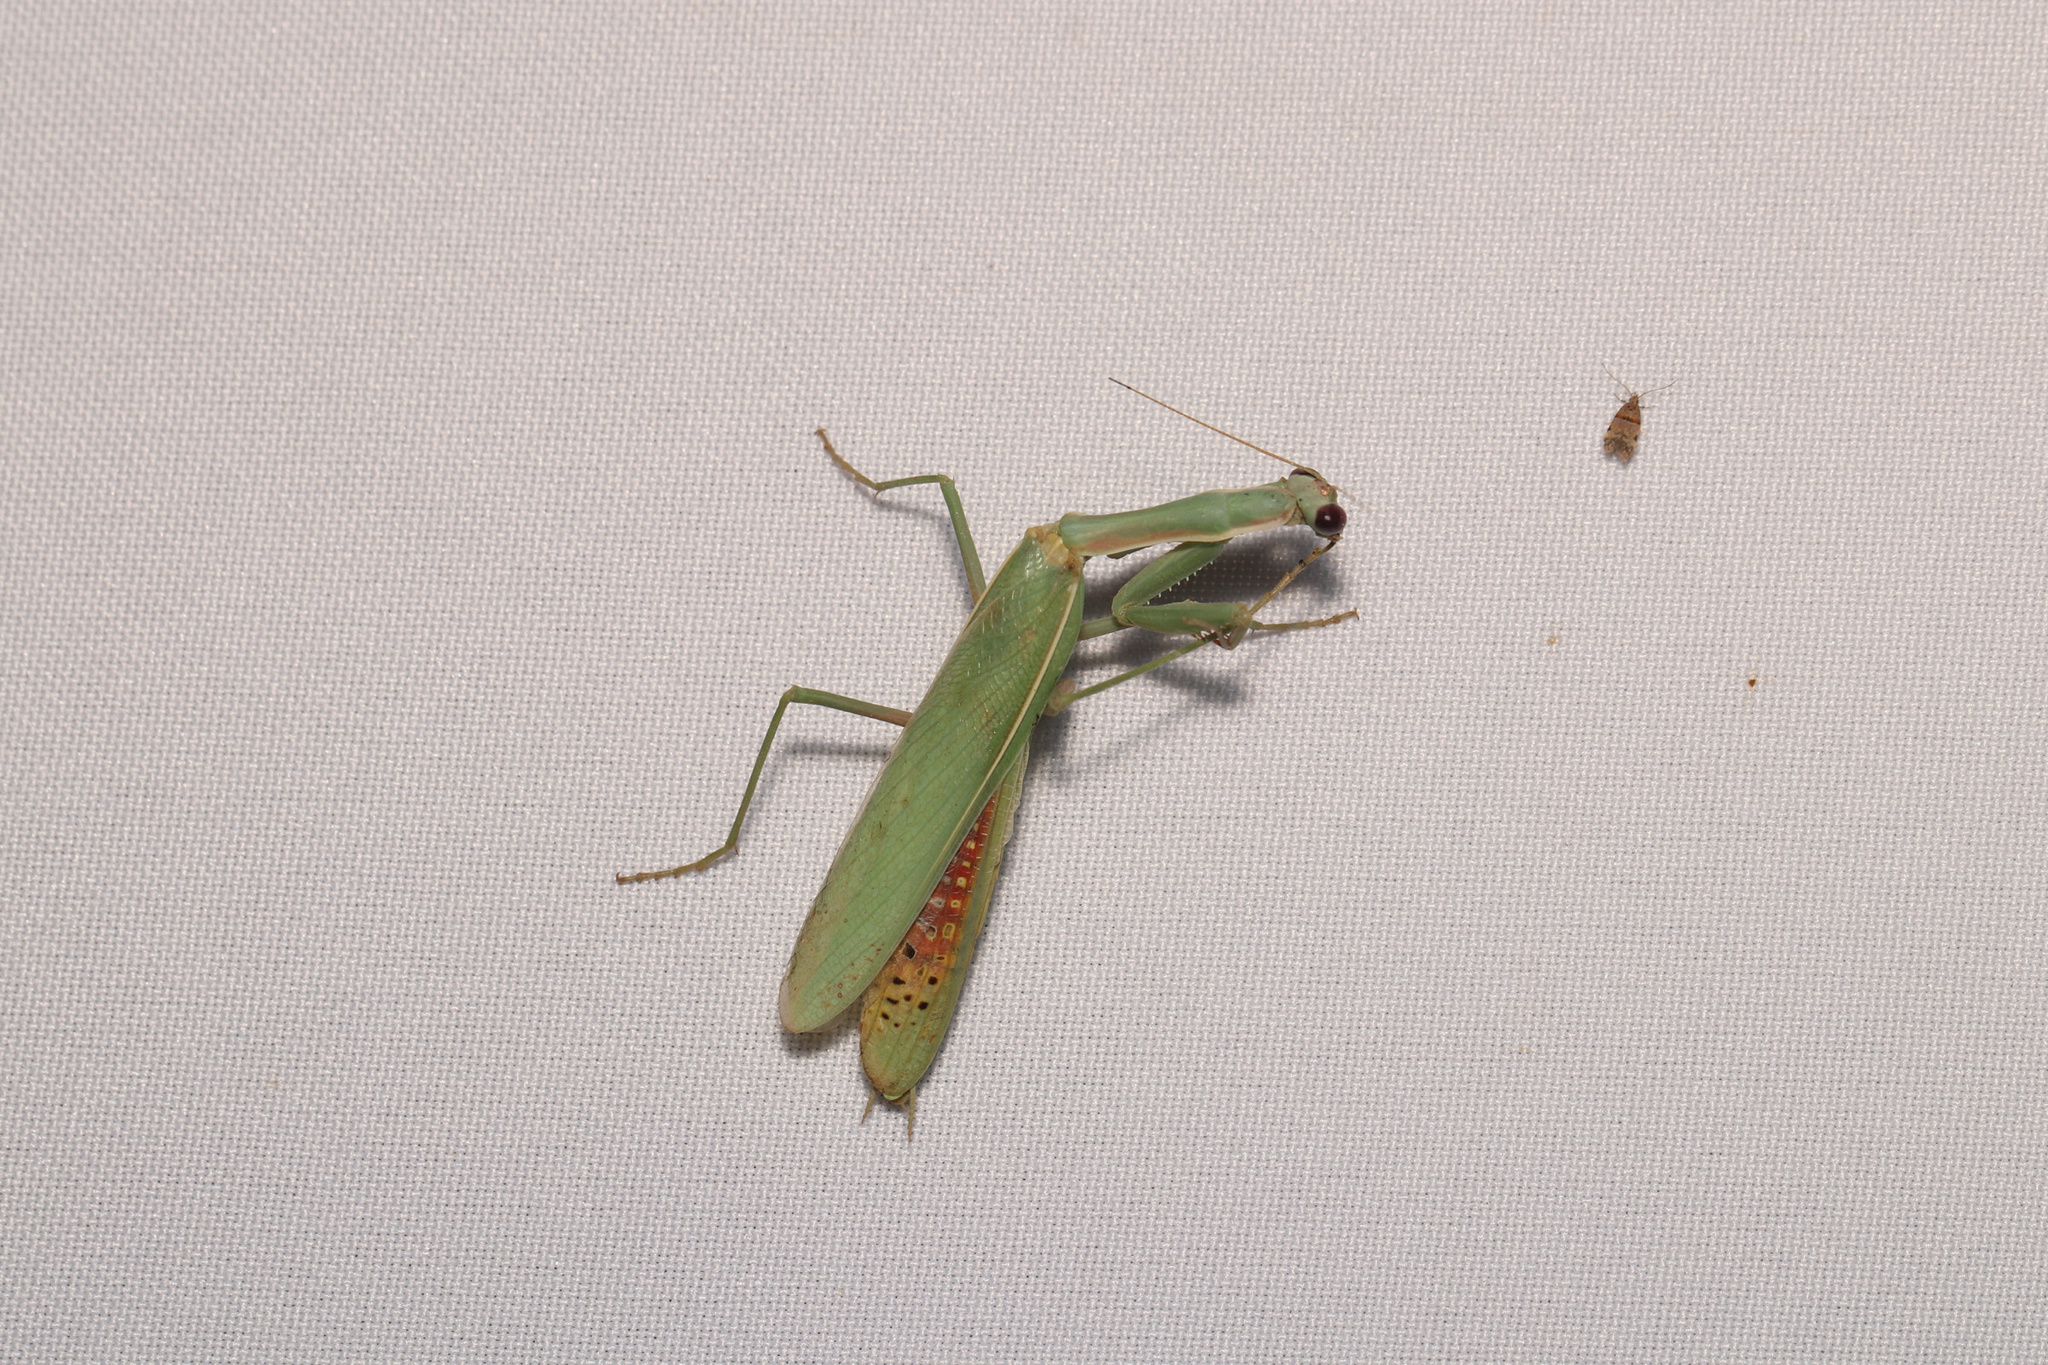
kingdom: Animalia
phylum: Arthropoda
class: Insecta
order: Mantodea
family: Eremiaphilidae
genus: Iris
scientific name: Iris oratoria
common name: Mediterranean mantis
